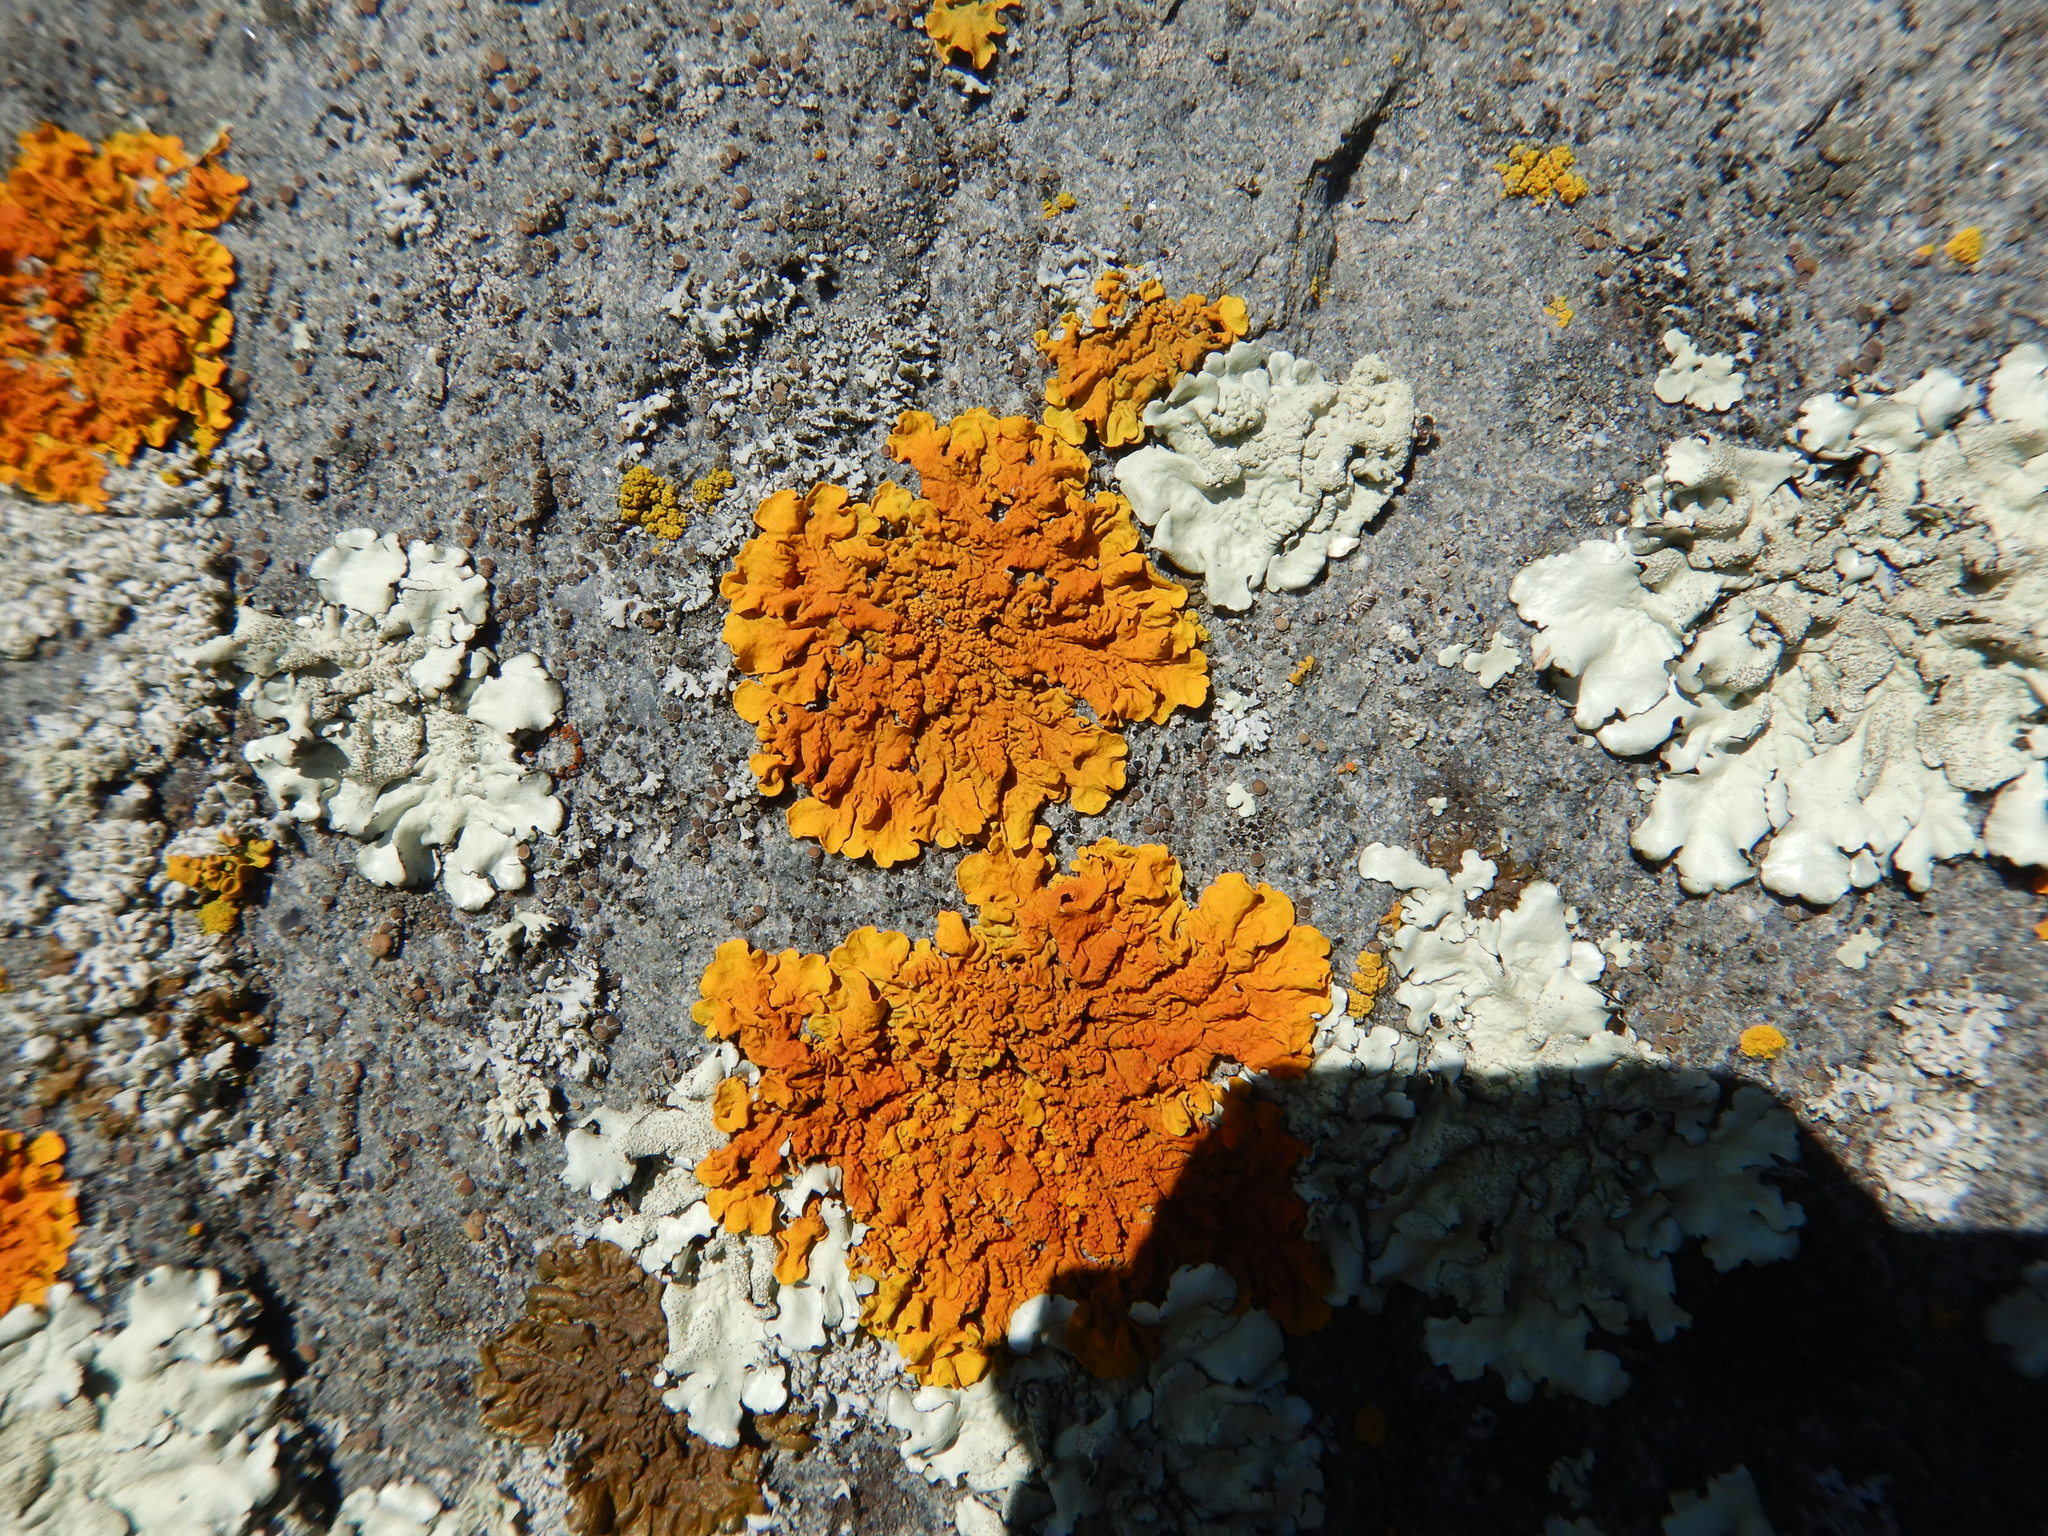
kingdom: Fungi
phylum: Ascomycota
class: Lecanoromycetes
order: Teloschistales
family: Teloschistaceae
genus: Xanthoria
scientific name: Xanthoria calcicola
